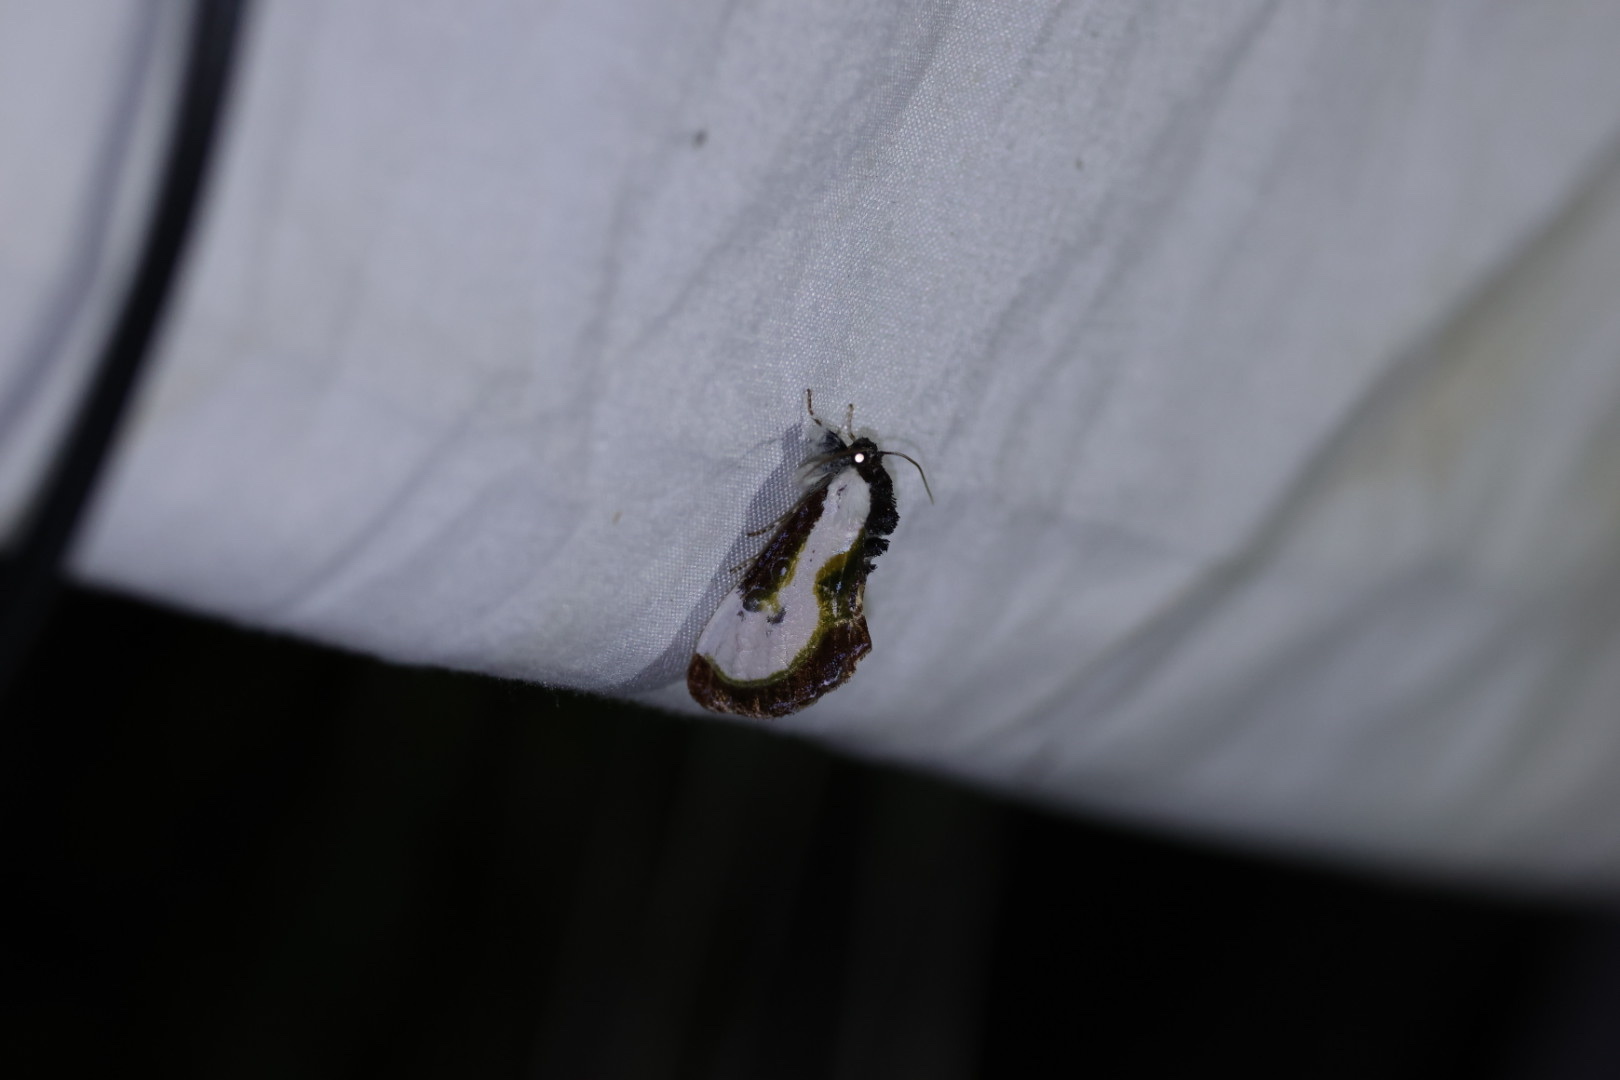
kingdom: Animalia
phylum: Arthropoda
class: Insecta
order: Lepidoptera
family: Noctuidae
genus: Eudryas
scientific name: Eudryas grata
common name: Beautiful wood-nymph
